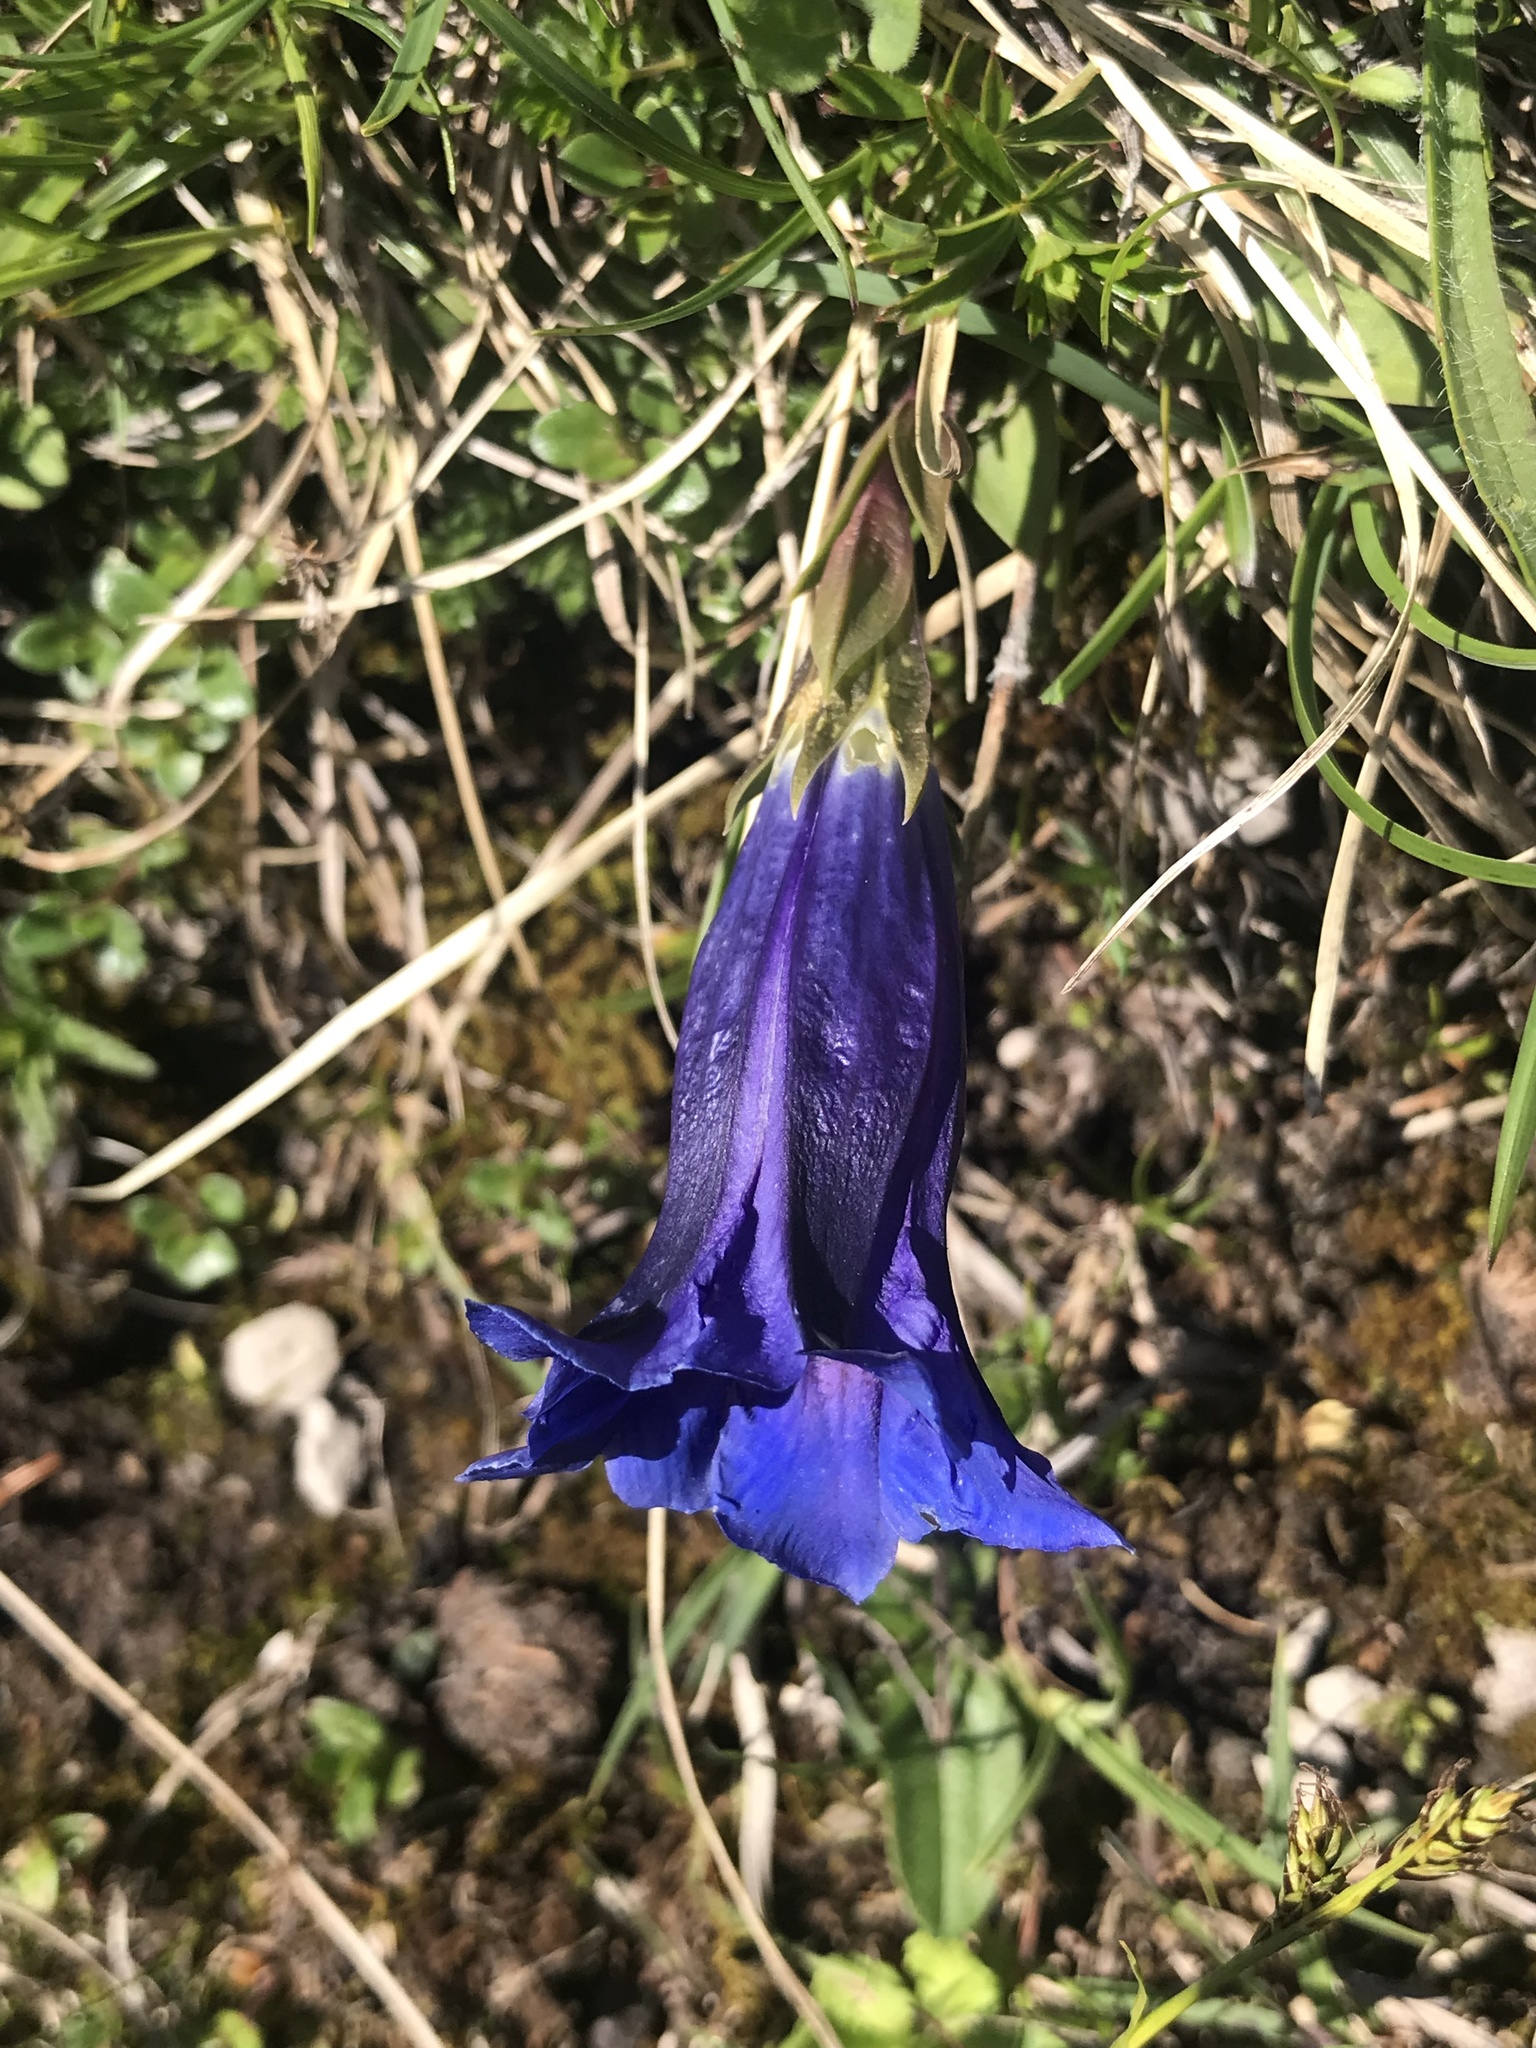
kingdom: Plantae
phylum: Tracheophyta
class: Magnoliopsida
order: Gentianales
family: Gentianaceae
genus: Gentiana
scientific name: Gentiana clusii
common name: Trumpet gentian
